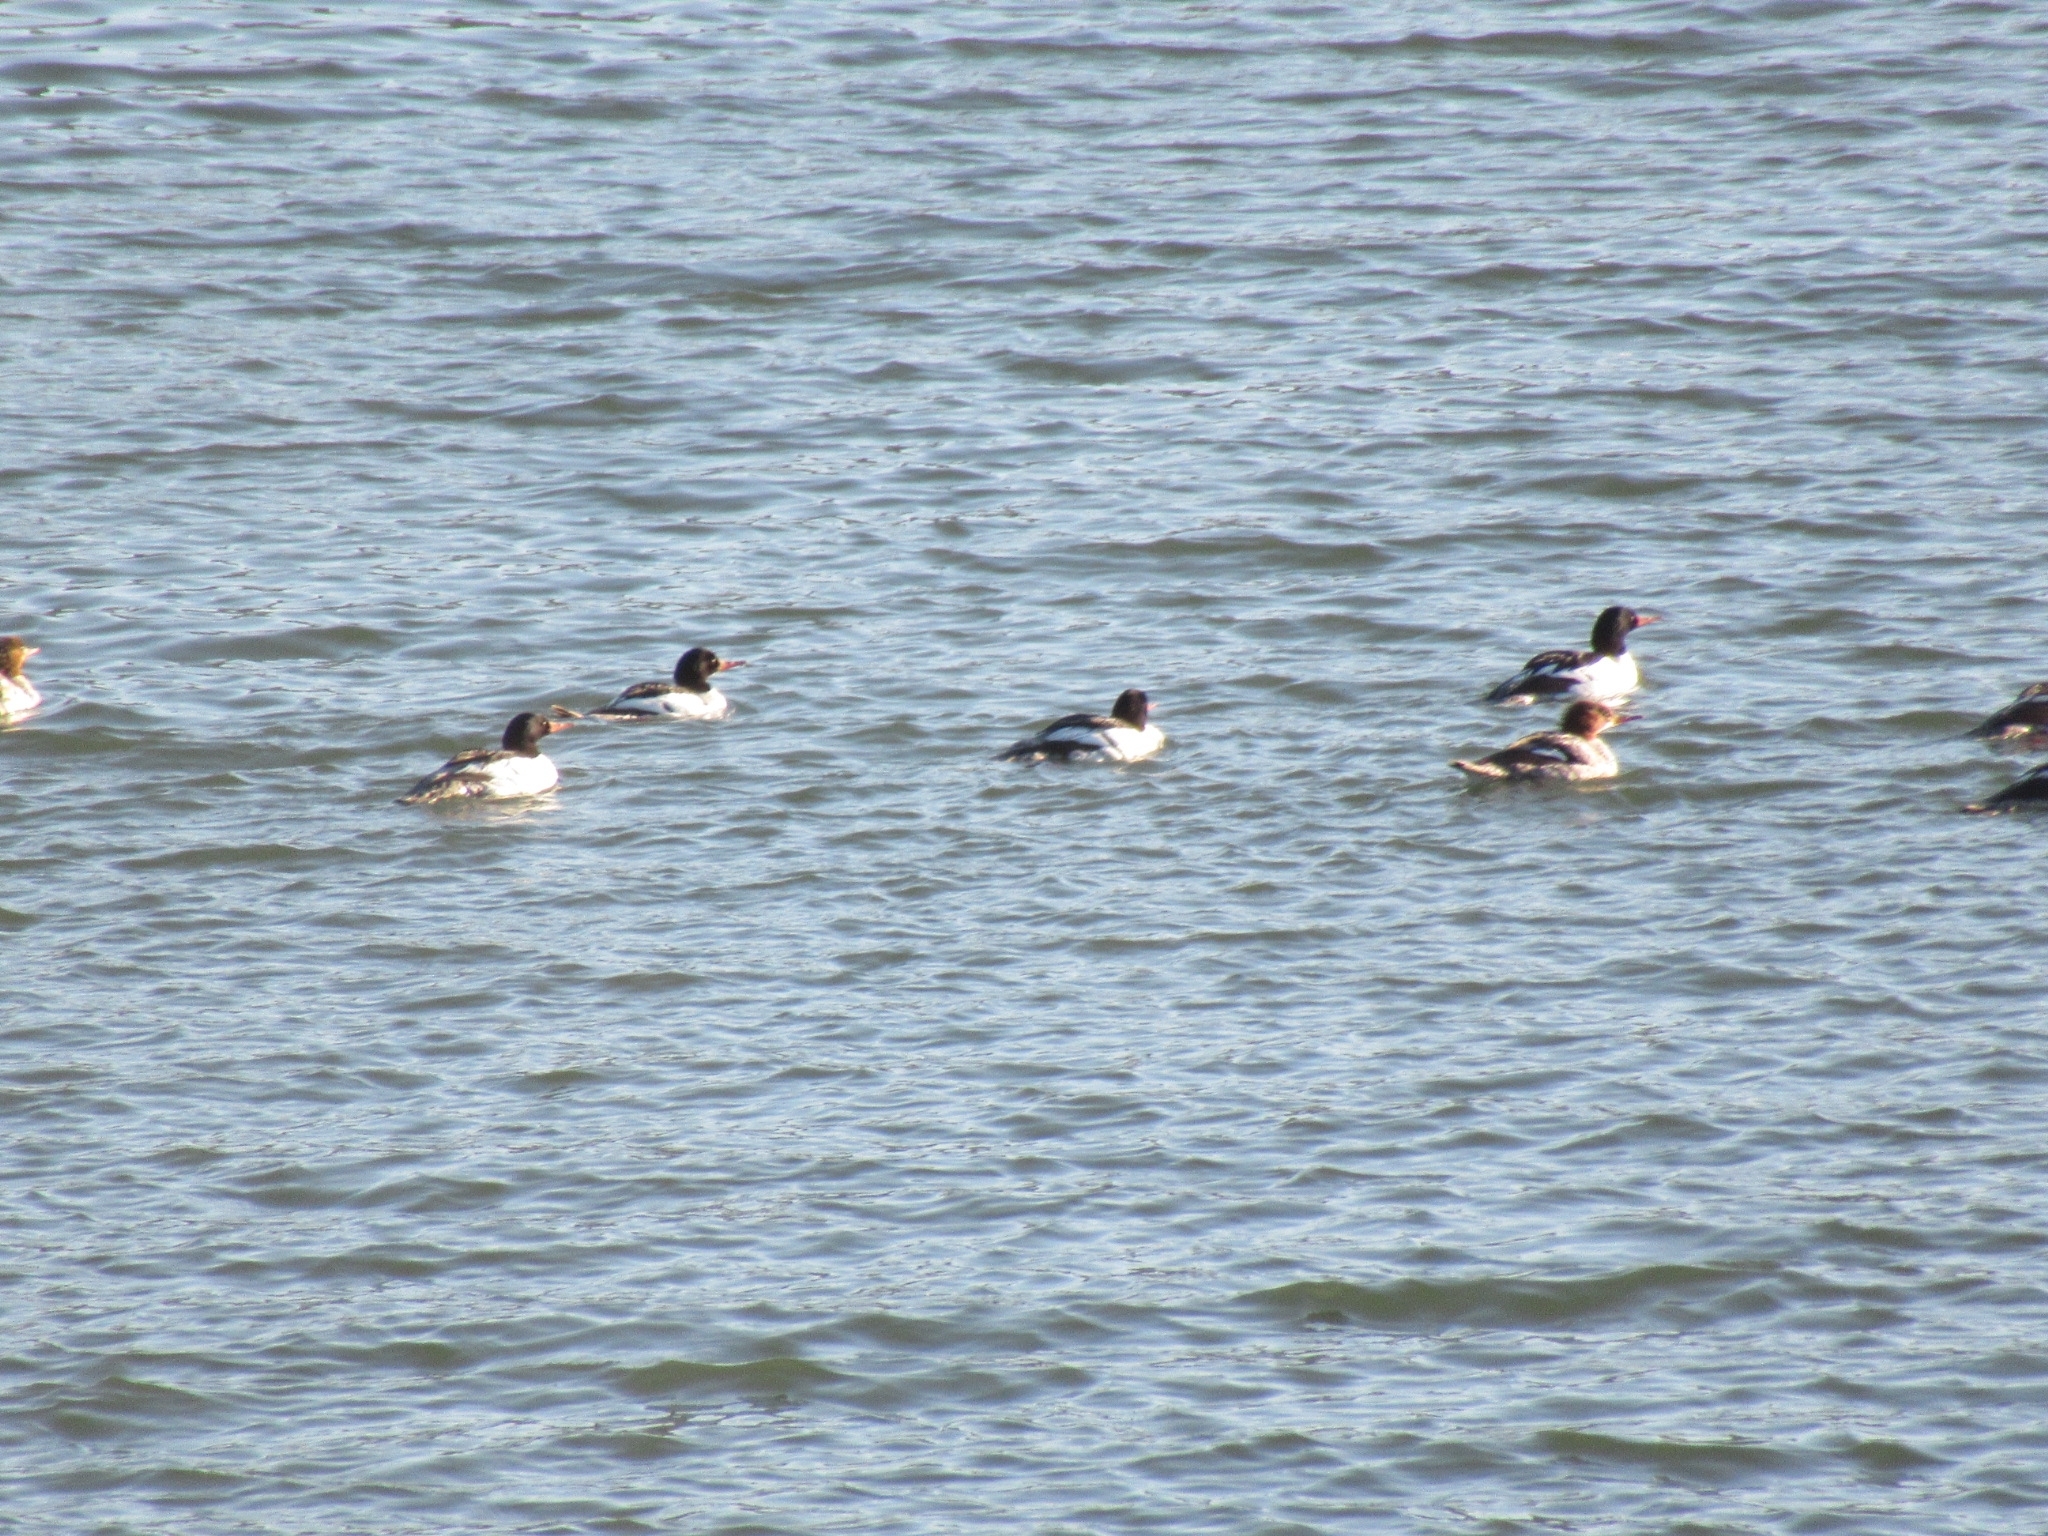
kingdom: Animalia
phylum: Chordata
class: Aves
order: Anseriformes
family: Anatidae
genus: Mergus
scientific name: Mergus merganser
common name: Common merganser
